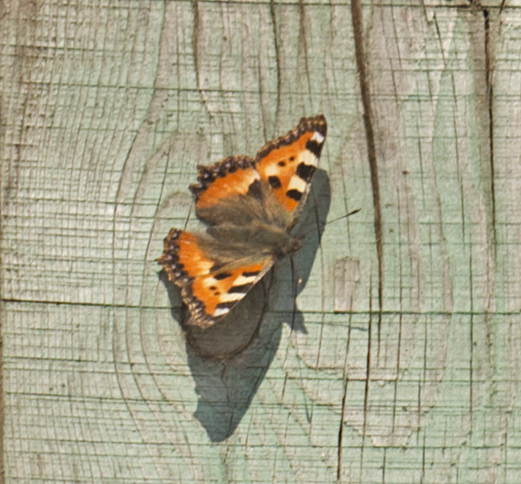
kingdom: Animalia
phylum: Arthropoda
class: Insecta
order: Lepidoptera
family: Nymphalidae
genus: Aglais
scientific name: Aglais urticae
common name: Small tortoiseshell
